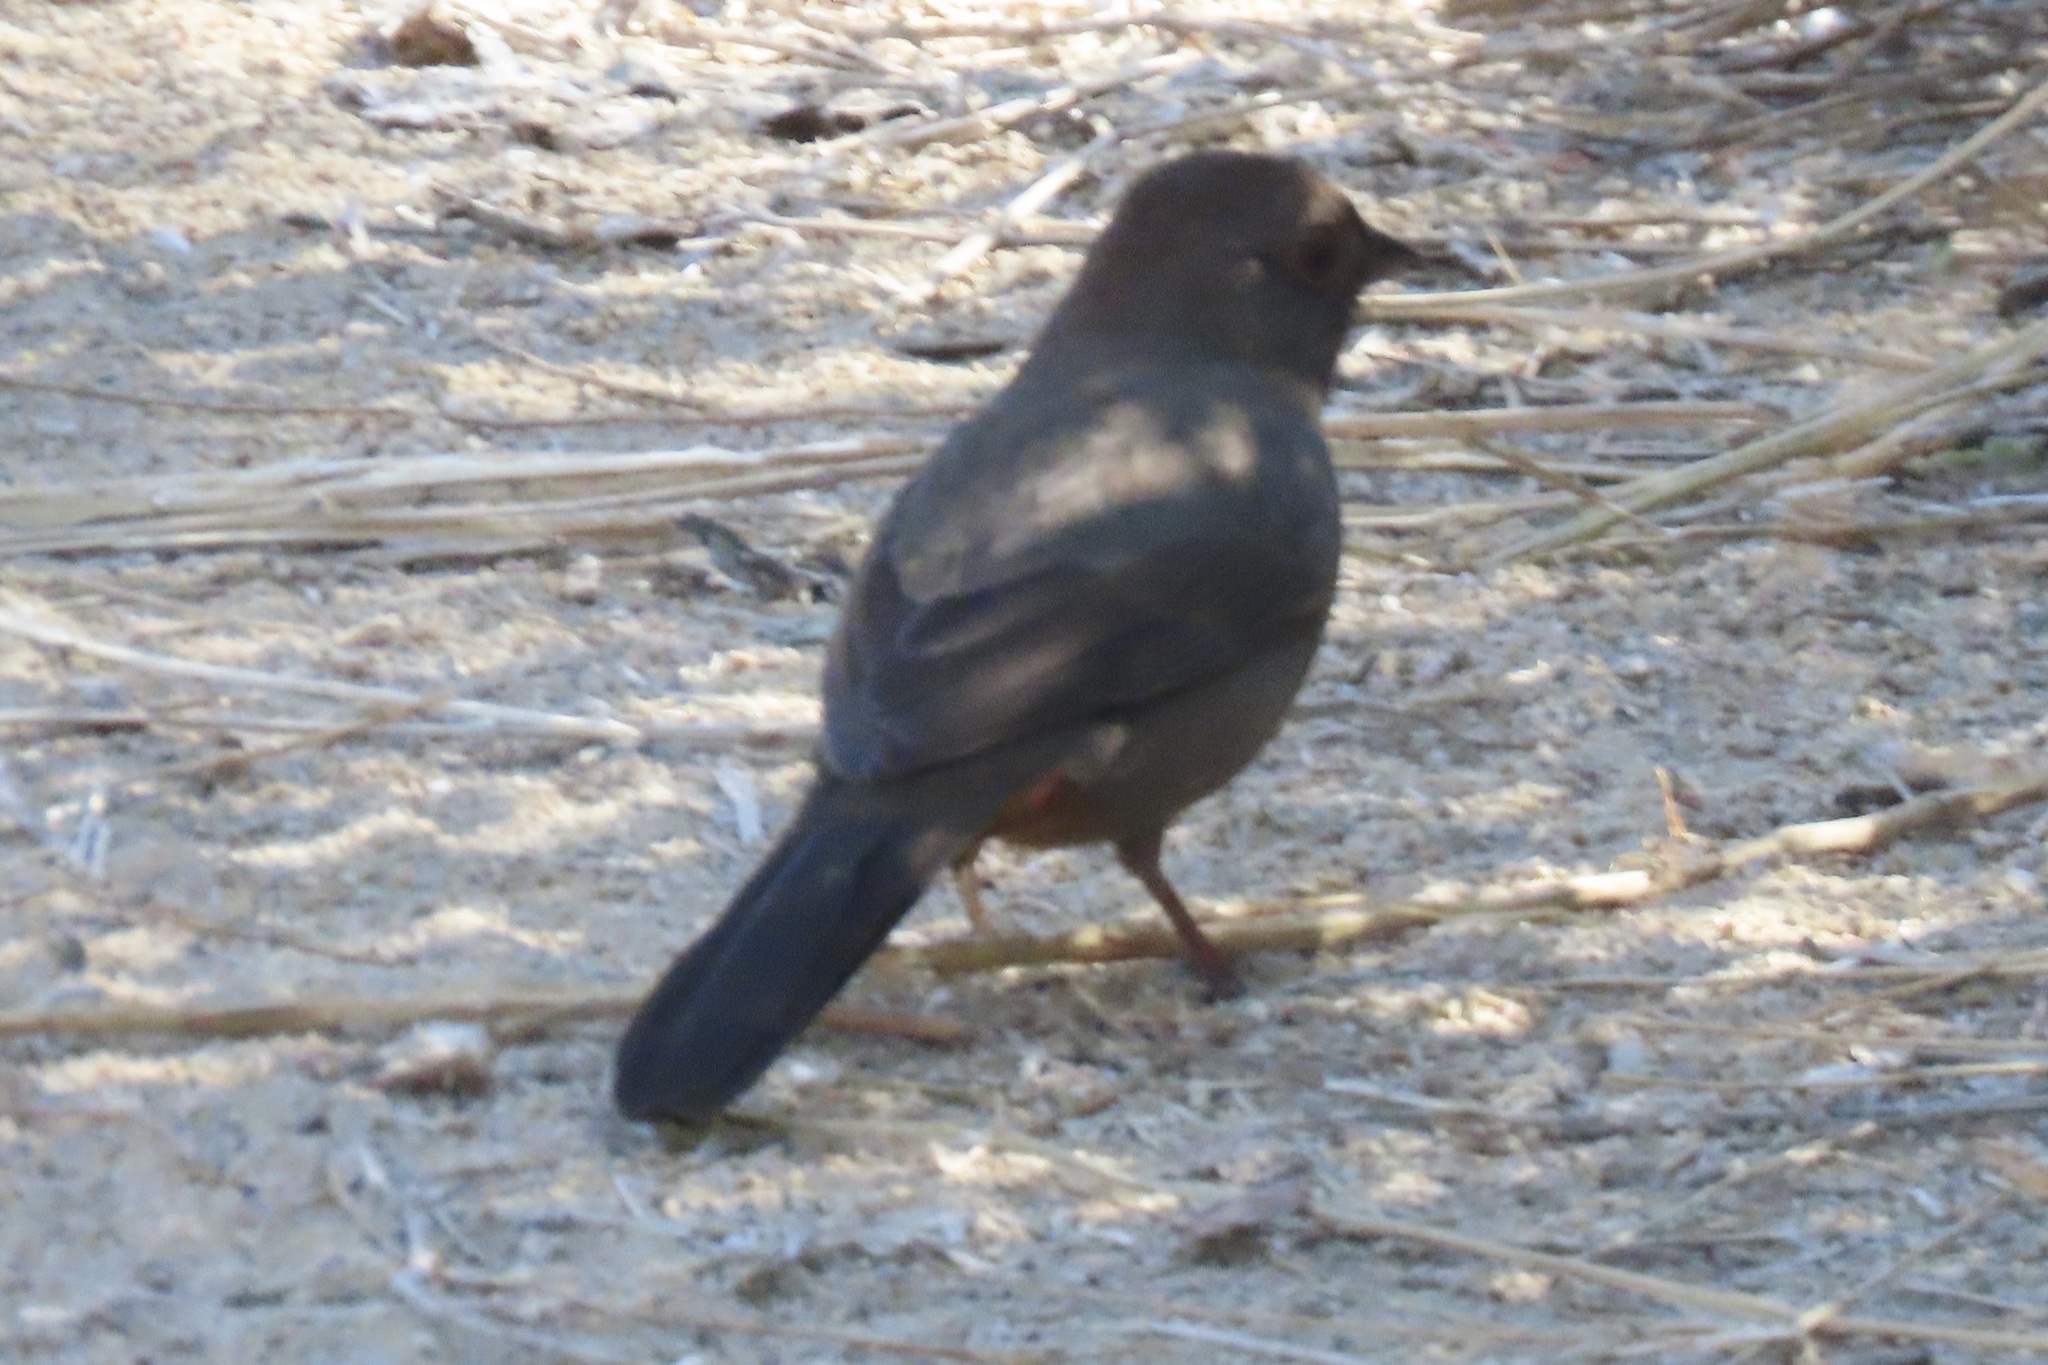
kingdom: Animalia
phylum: Chordata
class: Aves
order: Passeriformes
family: Passerellidae
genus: Melozone
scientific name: Melozone crissalis
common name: California towhee
